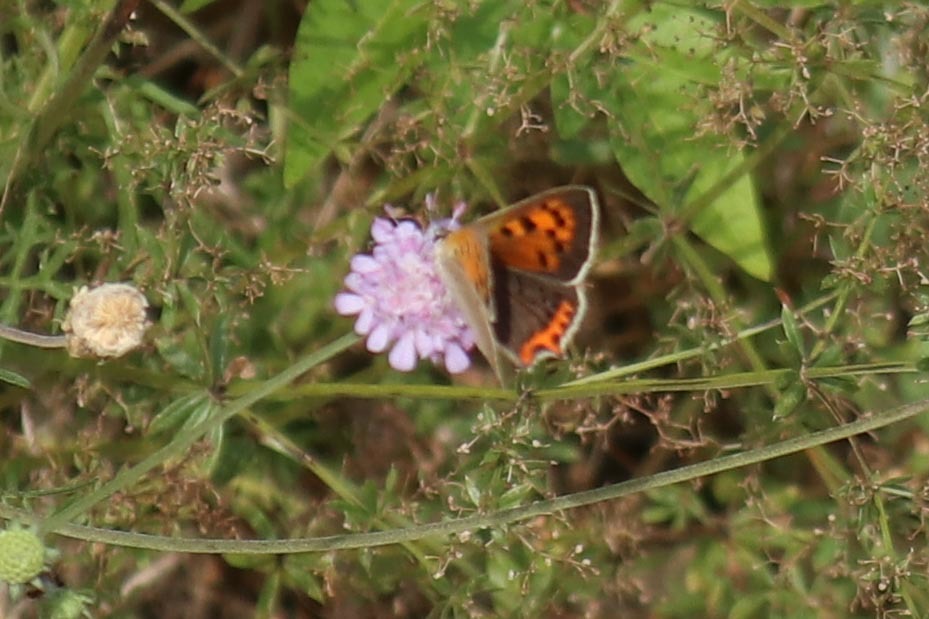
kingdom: Animalia
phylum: Arthropoda
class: Insecta
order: Lepidoptera
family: Lycaenidae
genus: Lycaena
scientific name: Lycaena phlaeas
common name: Small copper
